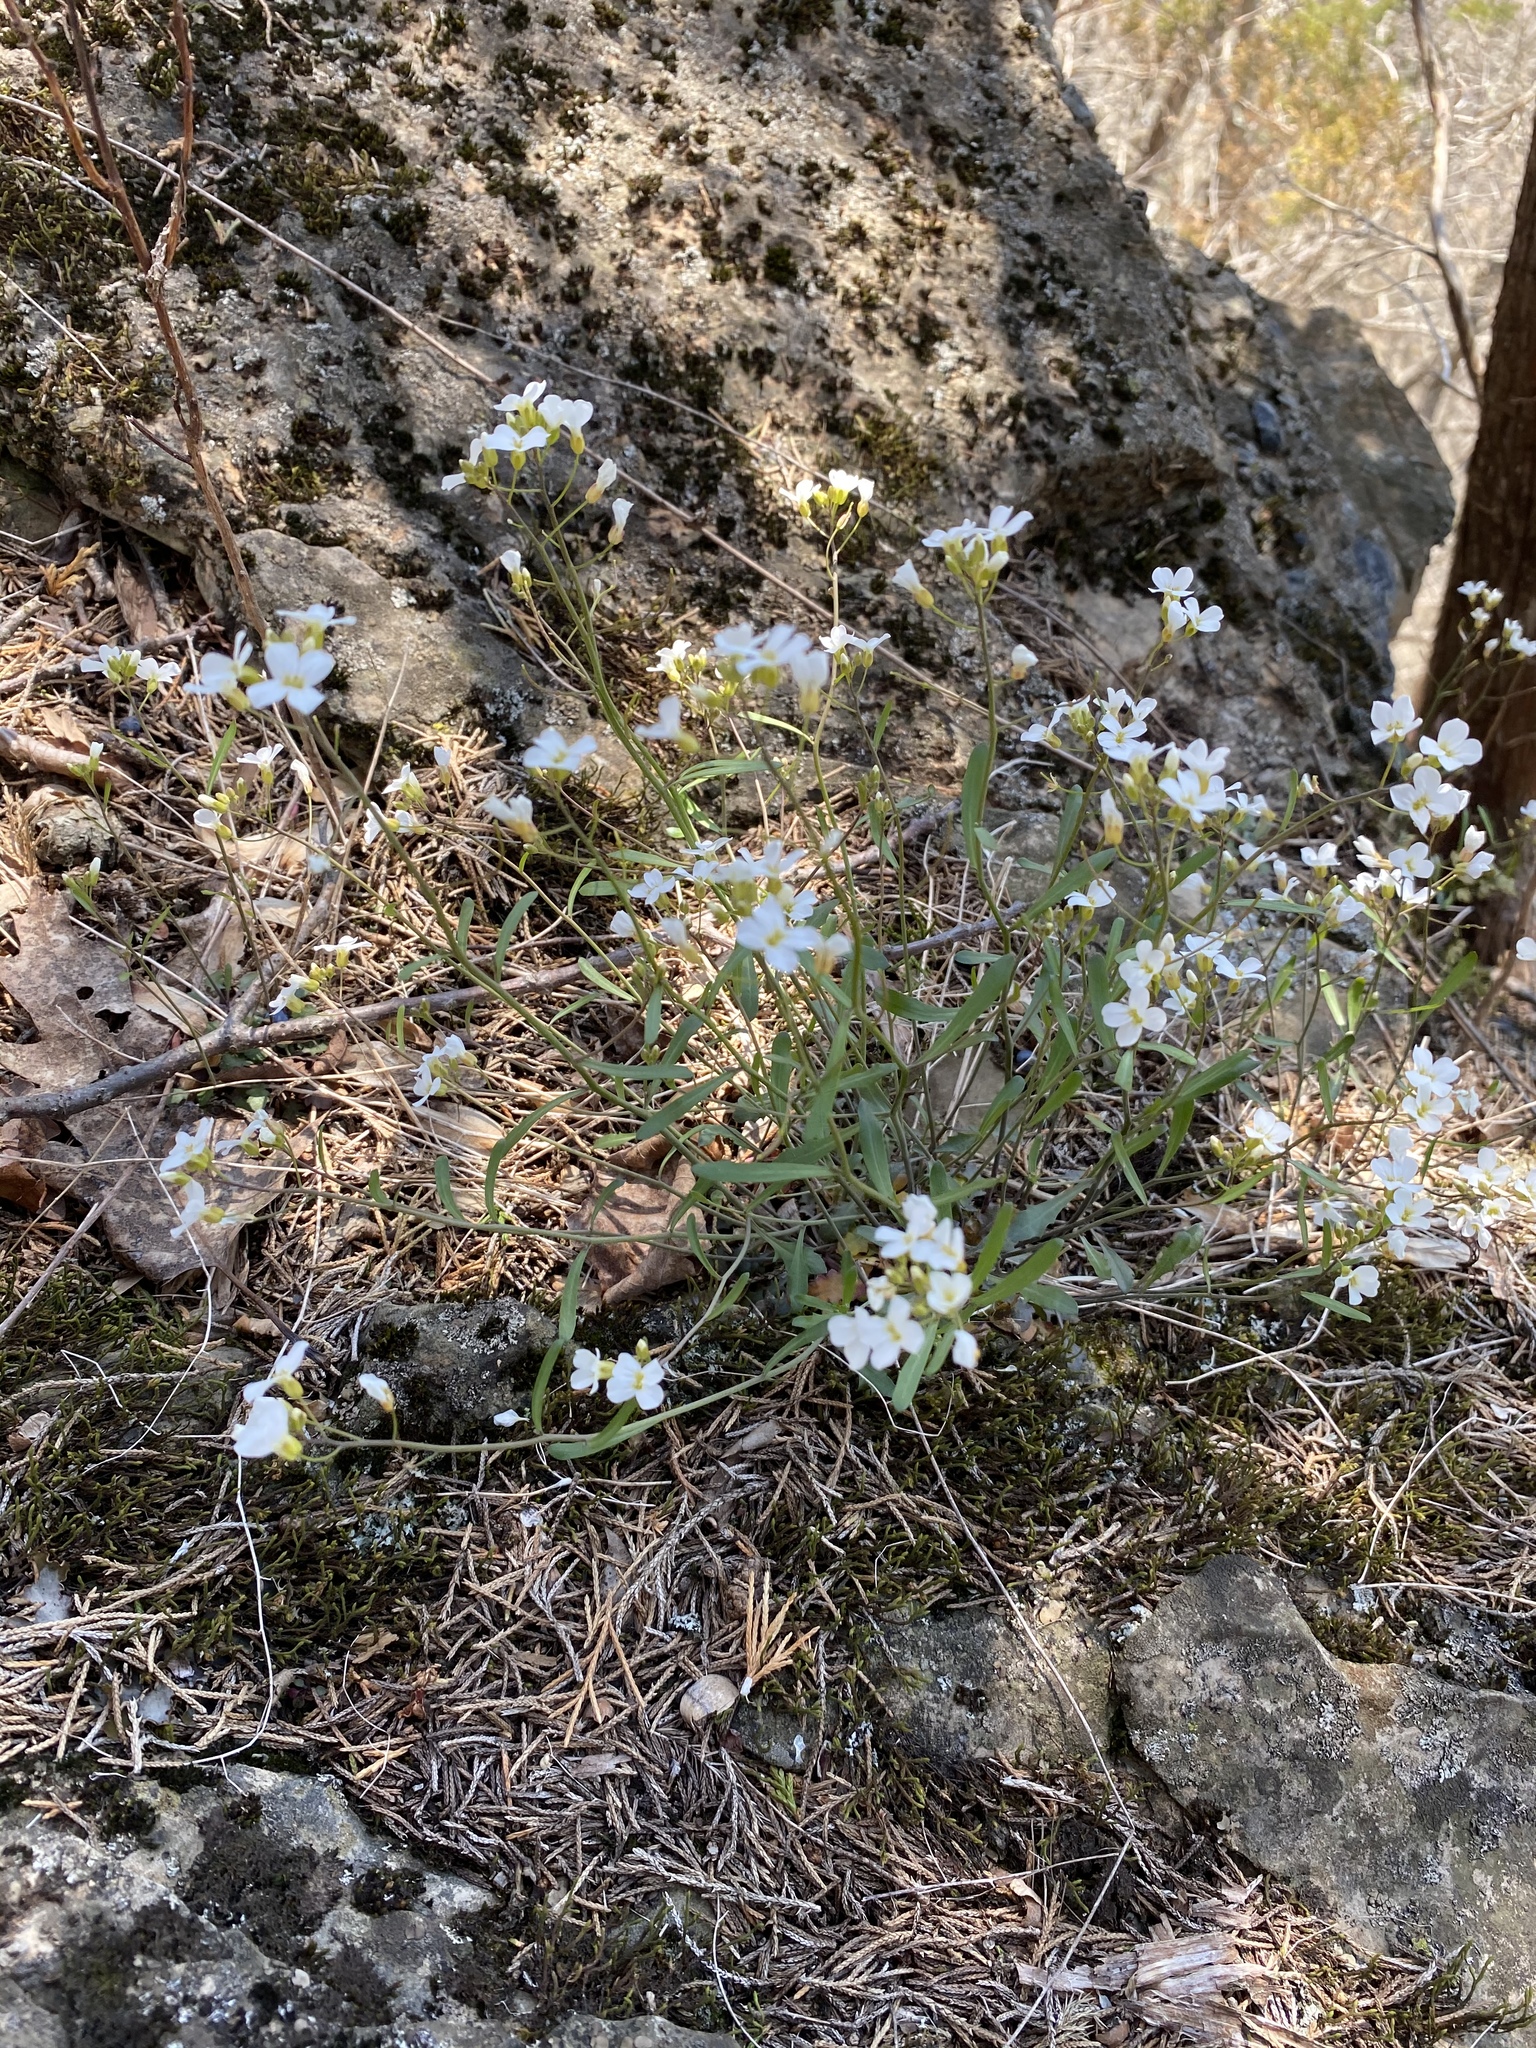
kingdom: Plantae
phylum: Tracheophyta
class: Magnoliopsida
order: Brassicales
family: Brassicaceae
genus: Arabidopsis
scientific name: Arabidopsis lyrata
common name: Lyrate rockcress
